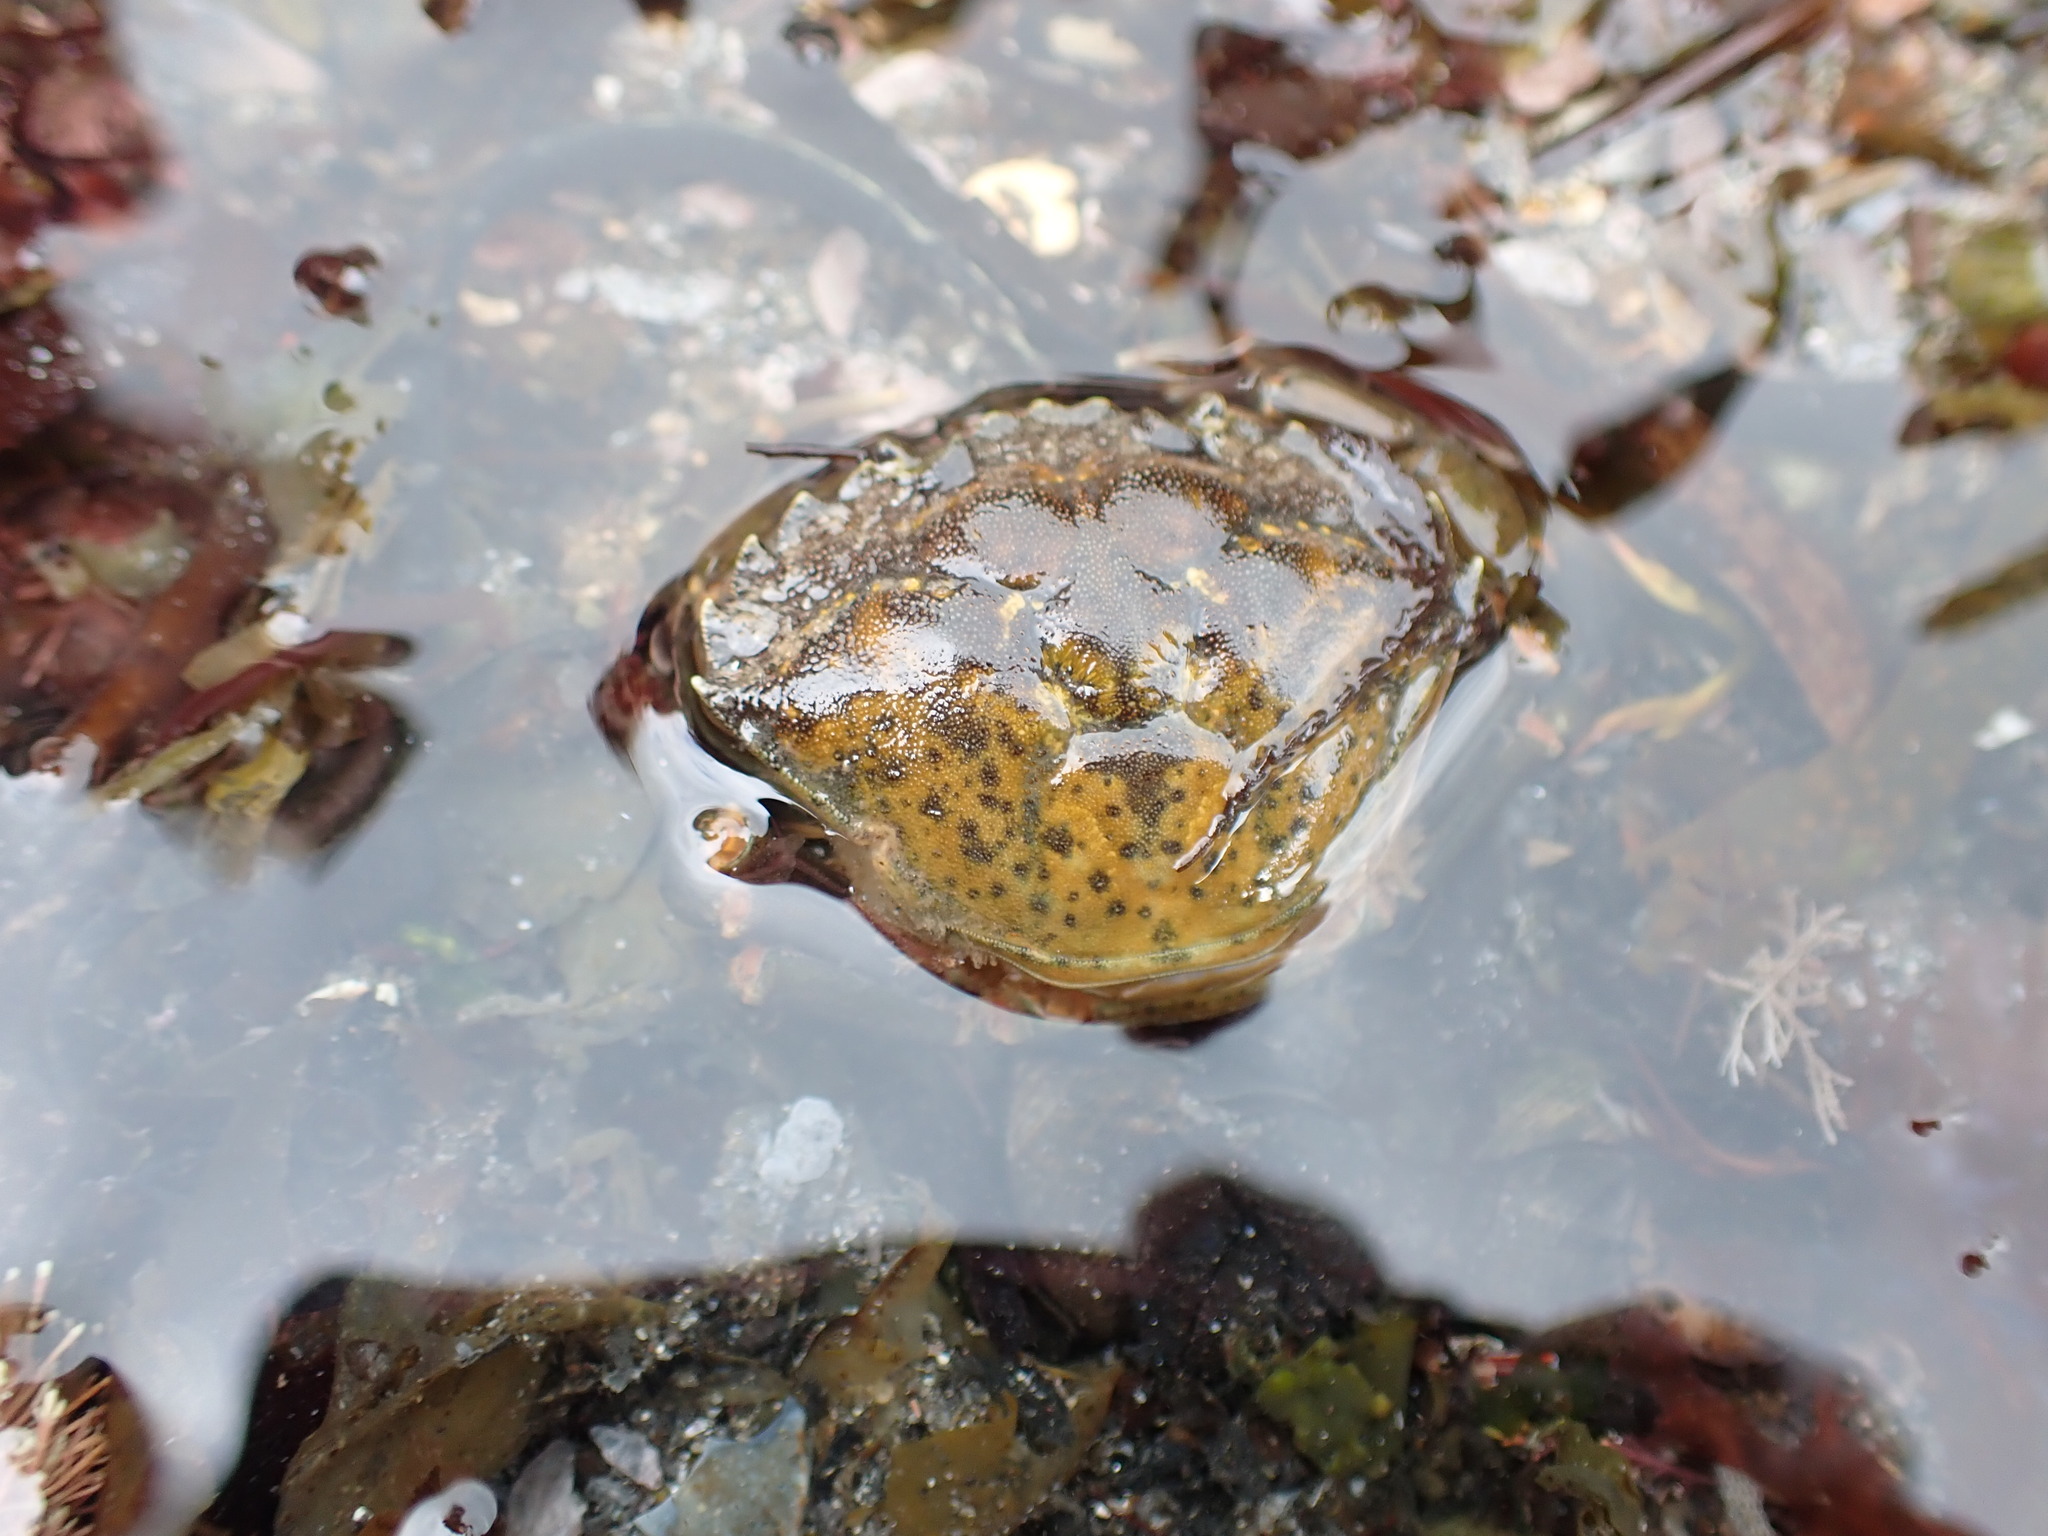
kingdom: Animalia
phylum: Arthropoda
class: Malacostraca
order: Decapoda
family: Carcinidae
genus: Carcinus
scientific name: Carcinus maenas
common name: European green crab
